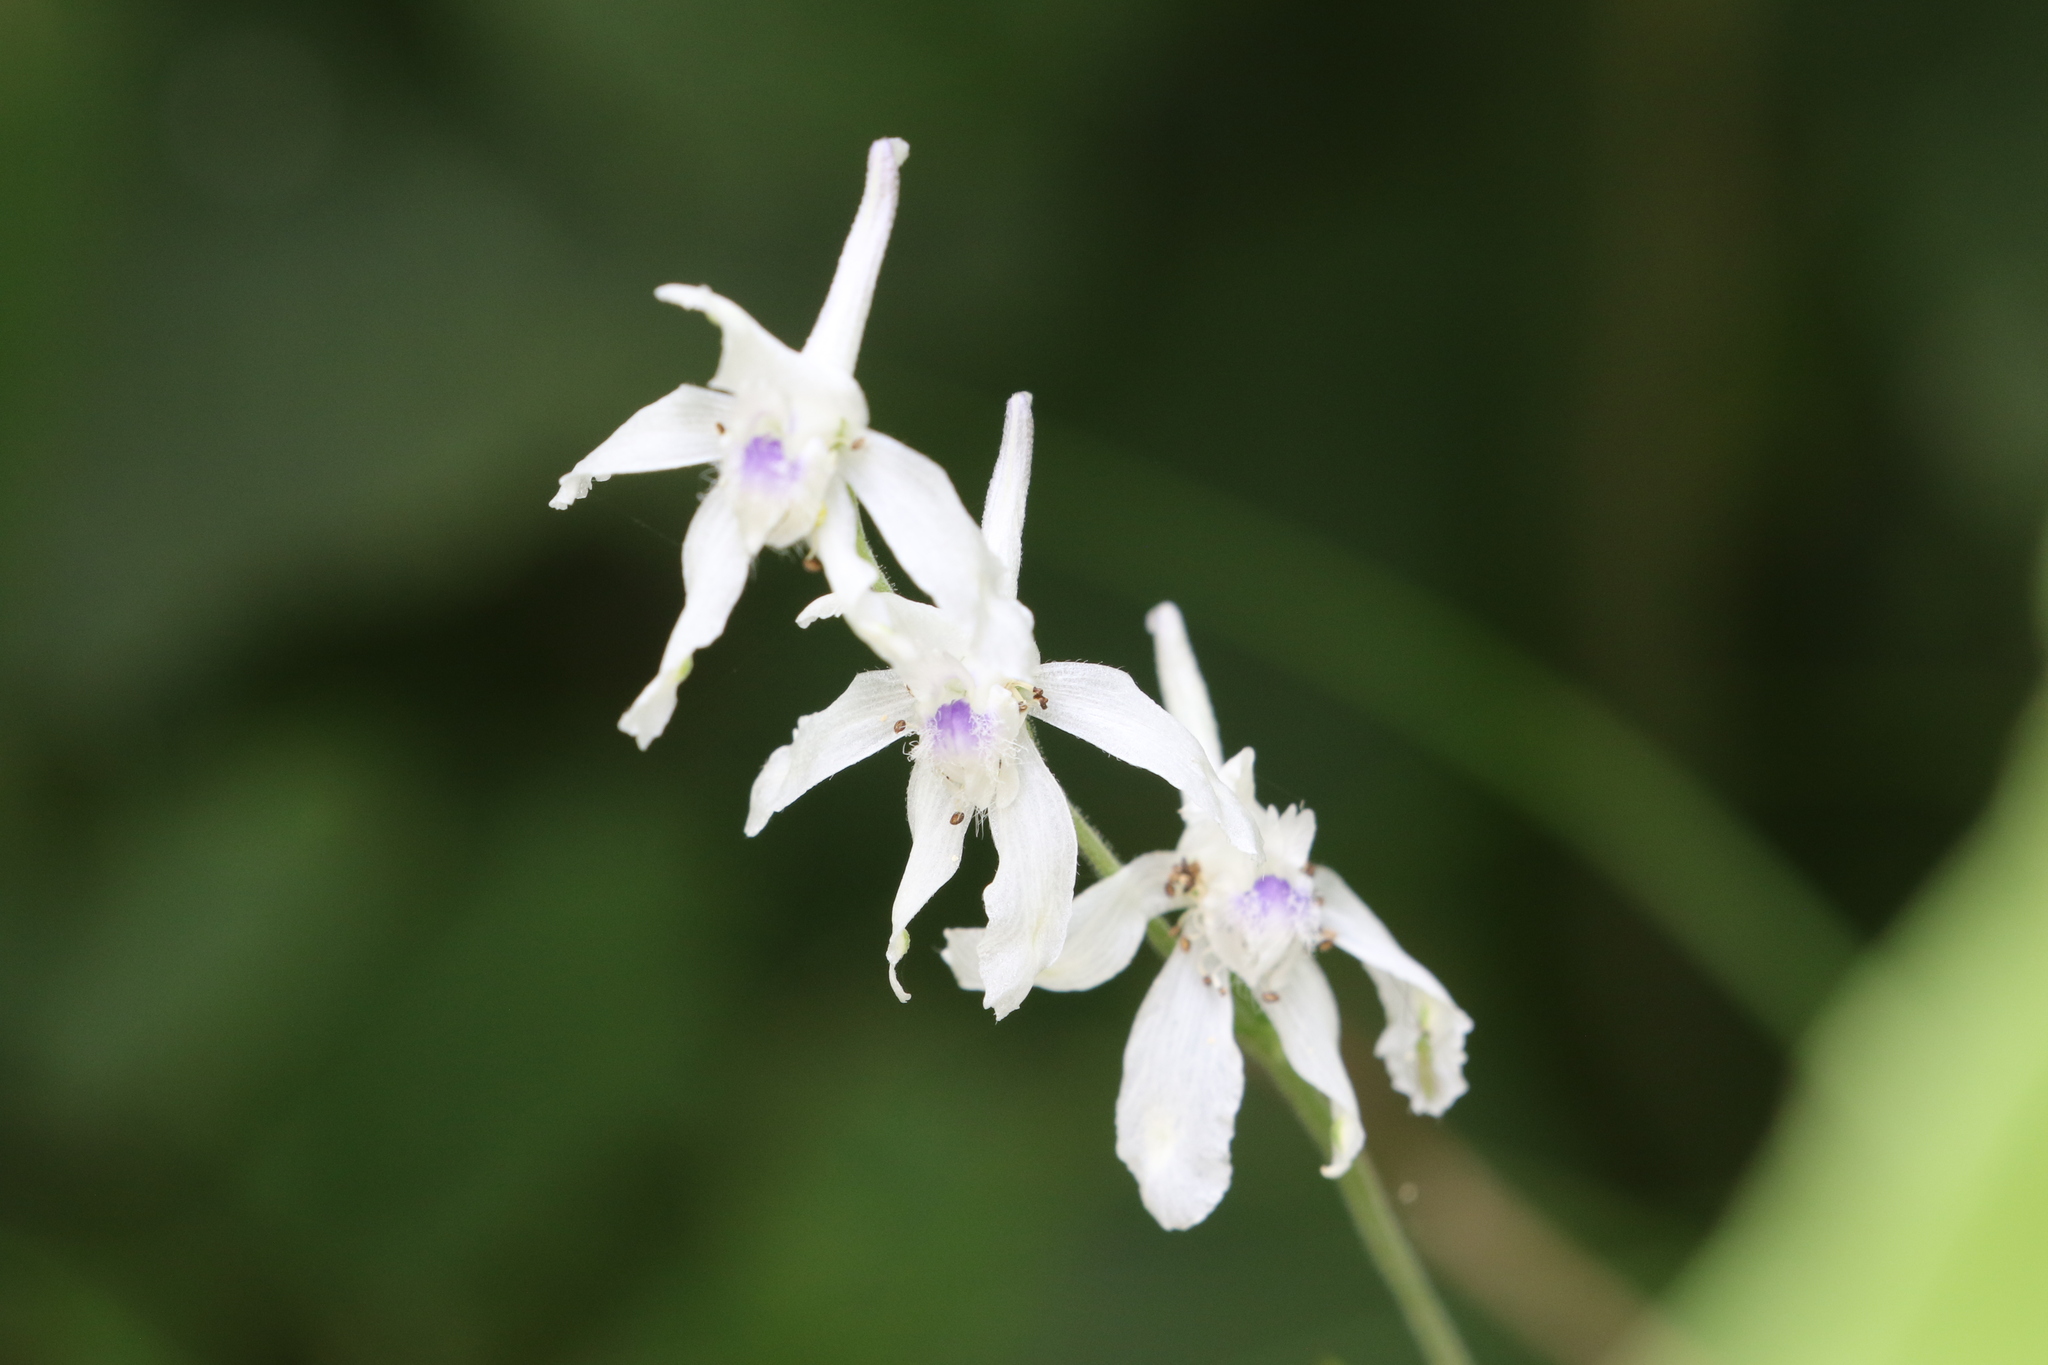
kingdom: Plantae
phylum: Tracheophyta
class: Magnoliopsida
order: Ranunculales
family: Ranunculaceae
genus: Delphinium
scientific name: Delphinium carolinianum
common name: Carolina larkspur
